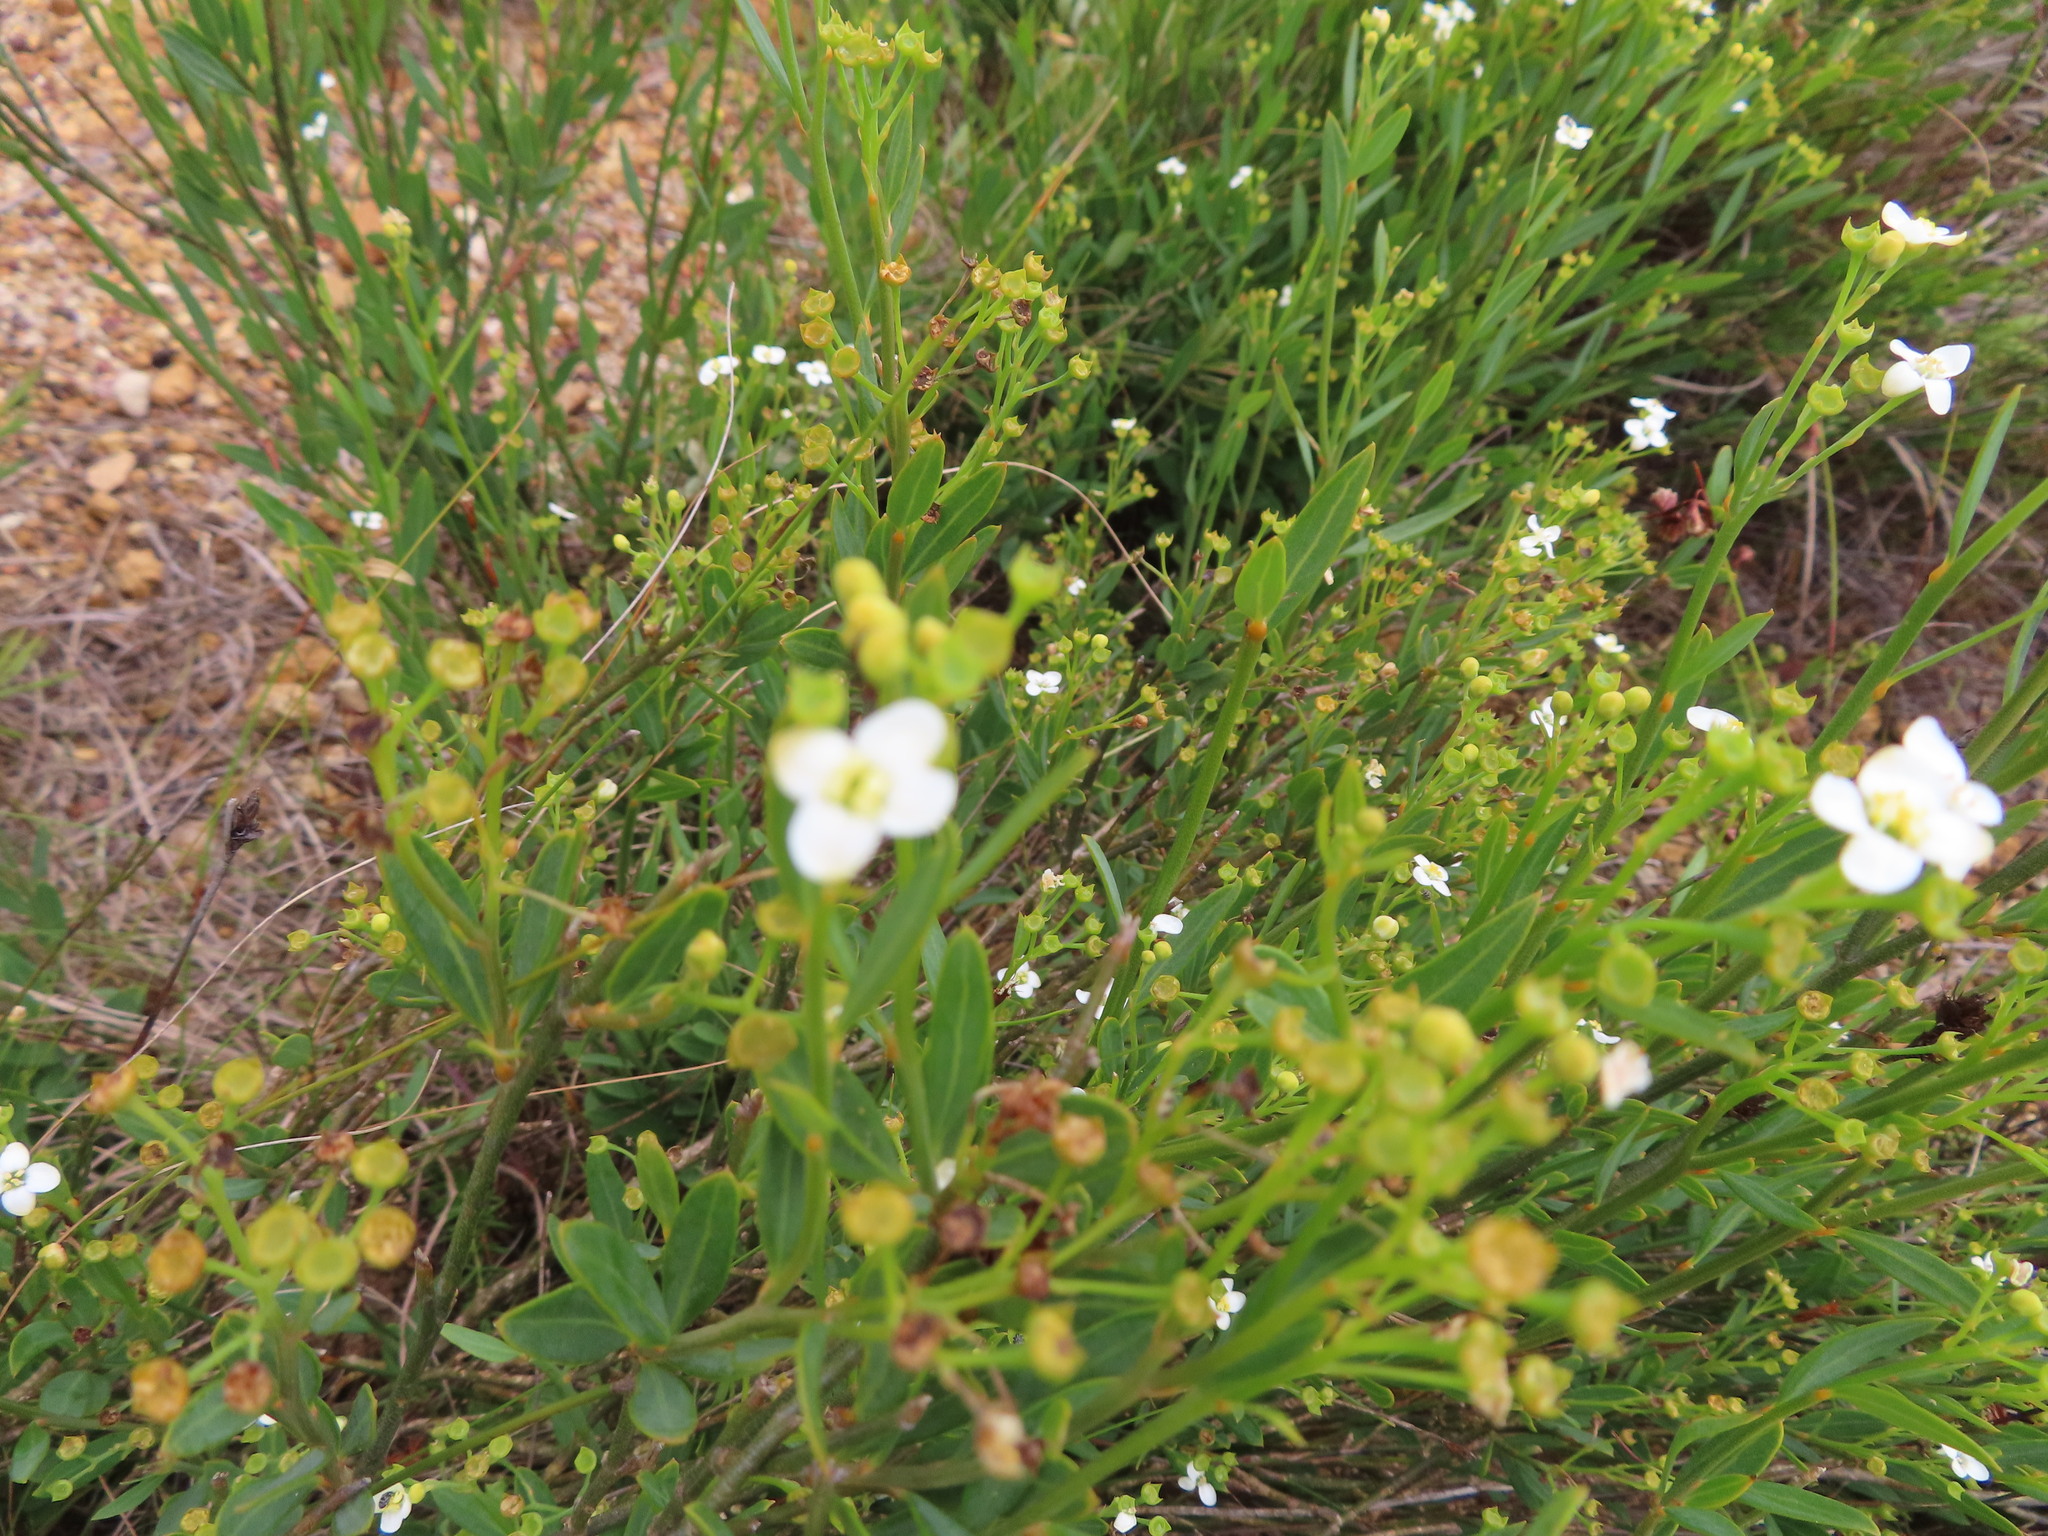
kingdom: Plantae
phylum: Tracheophyta
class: Magnoliopsida
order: Solanales
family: Montiniaceae
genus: Montinia
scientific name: Montinia caryophyllacea
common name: Wild clove-bush
